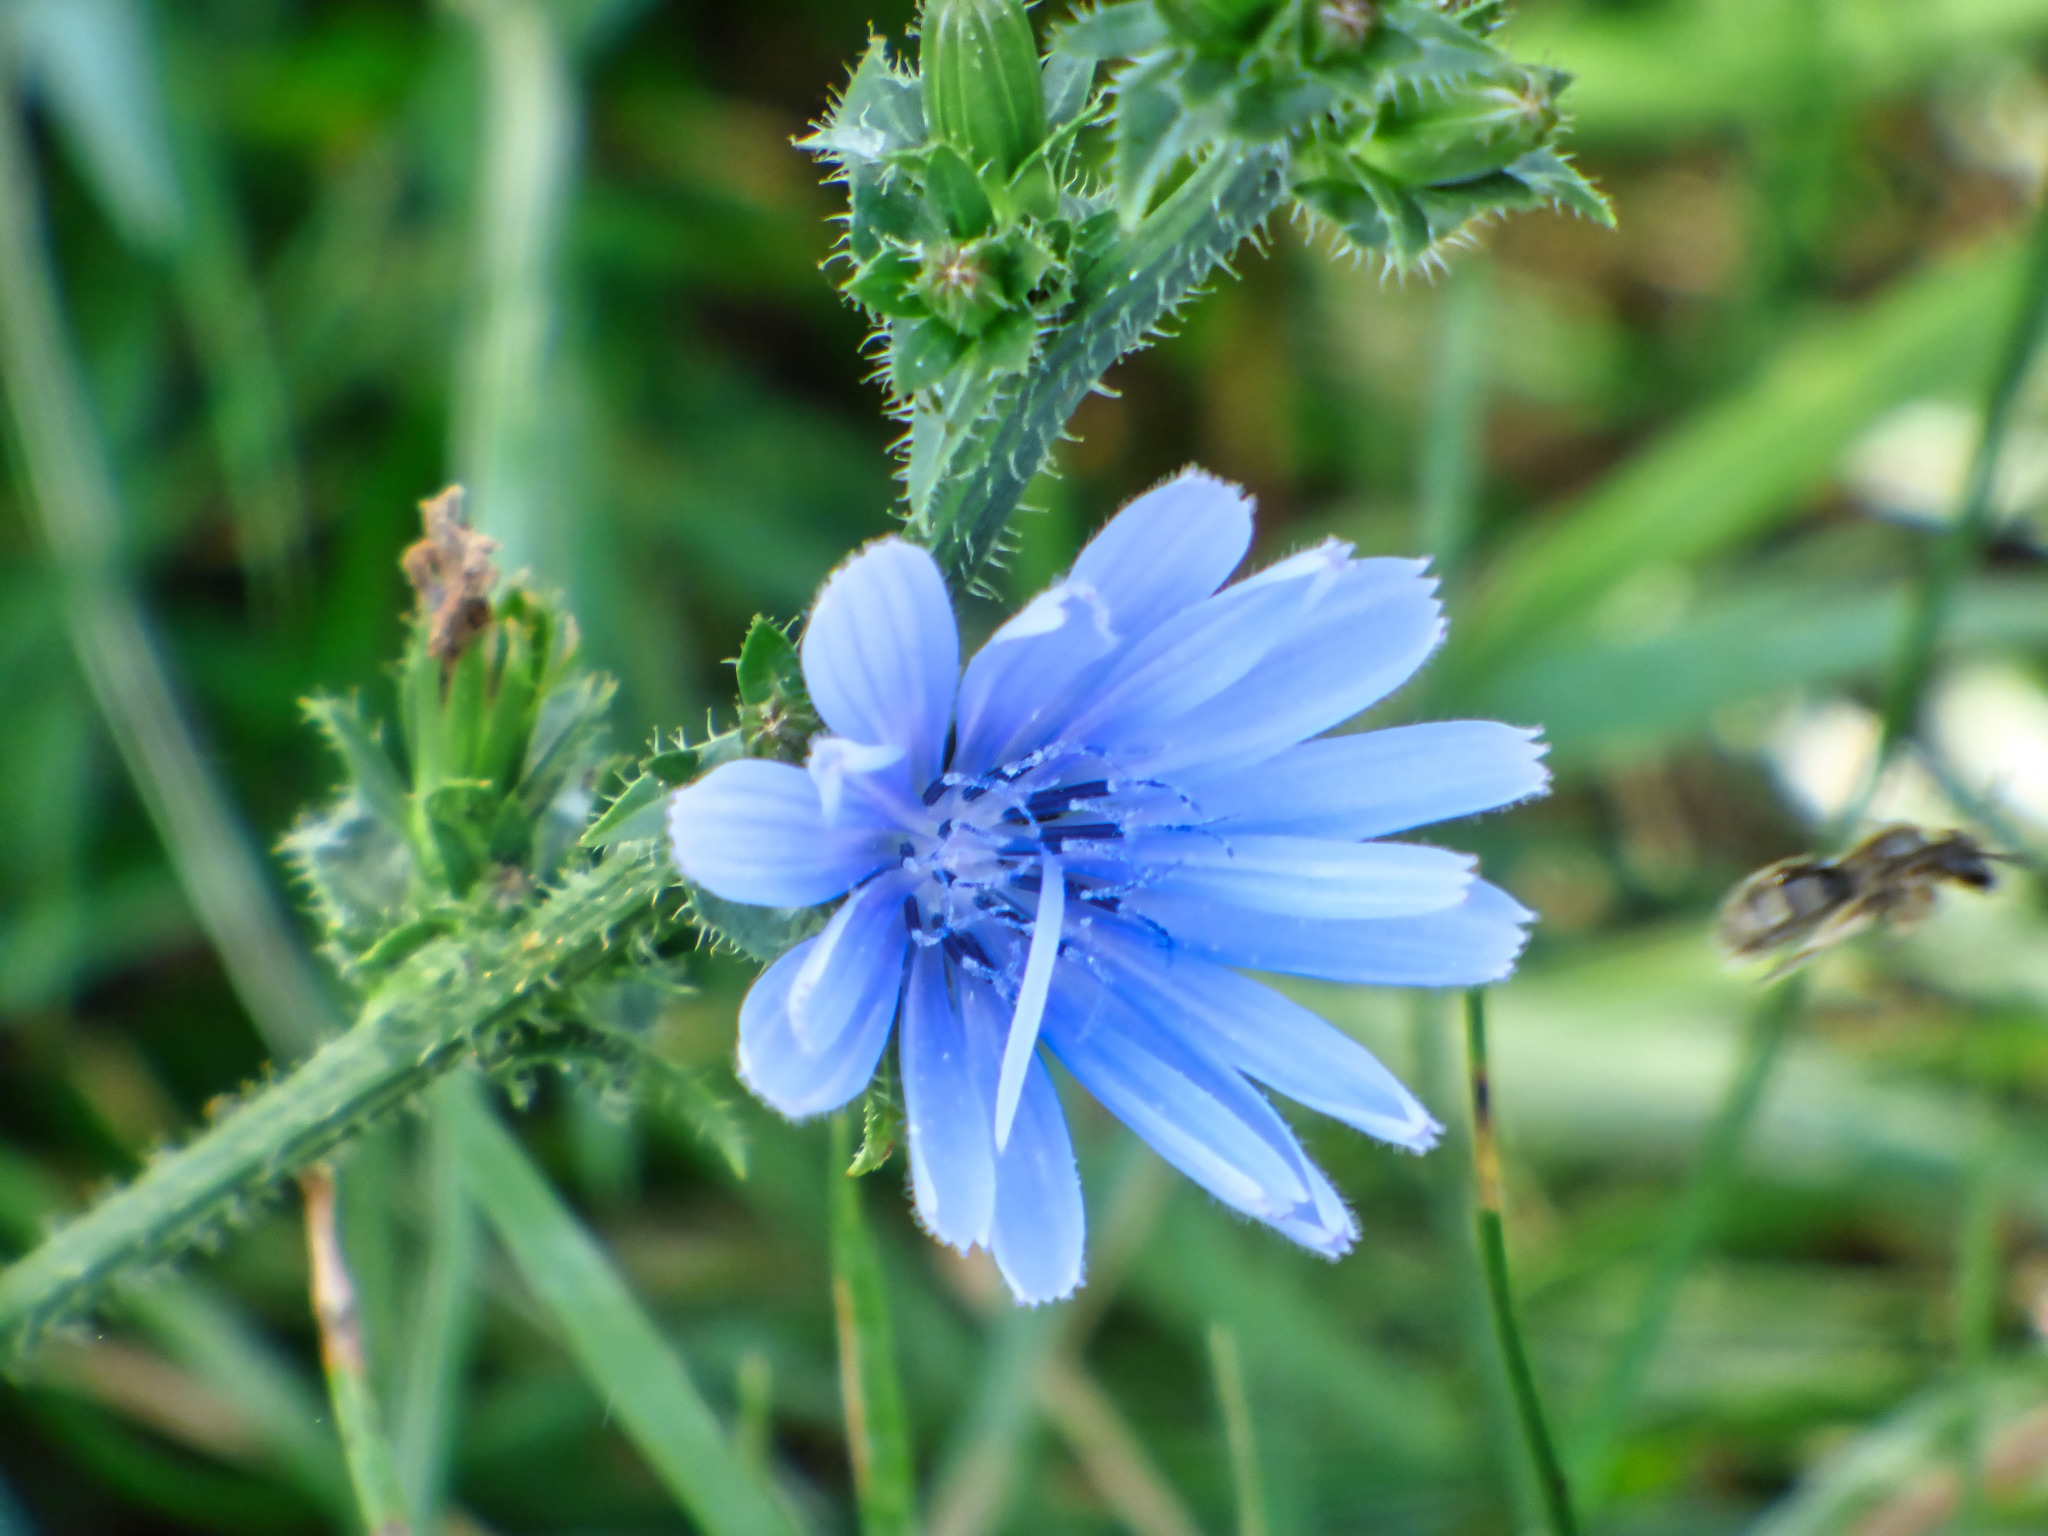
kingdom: Plantae
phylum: Tracheophyta
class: Magnoliopsida
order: Asterales
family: Asteraceae
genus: Cichorium
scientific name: Cichorium intybus
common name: Chicory
